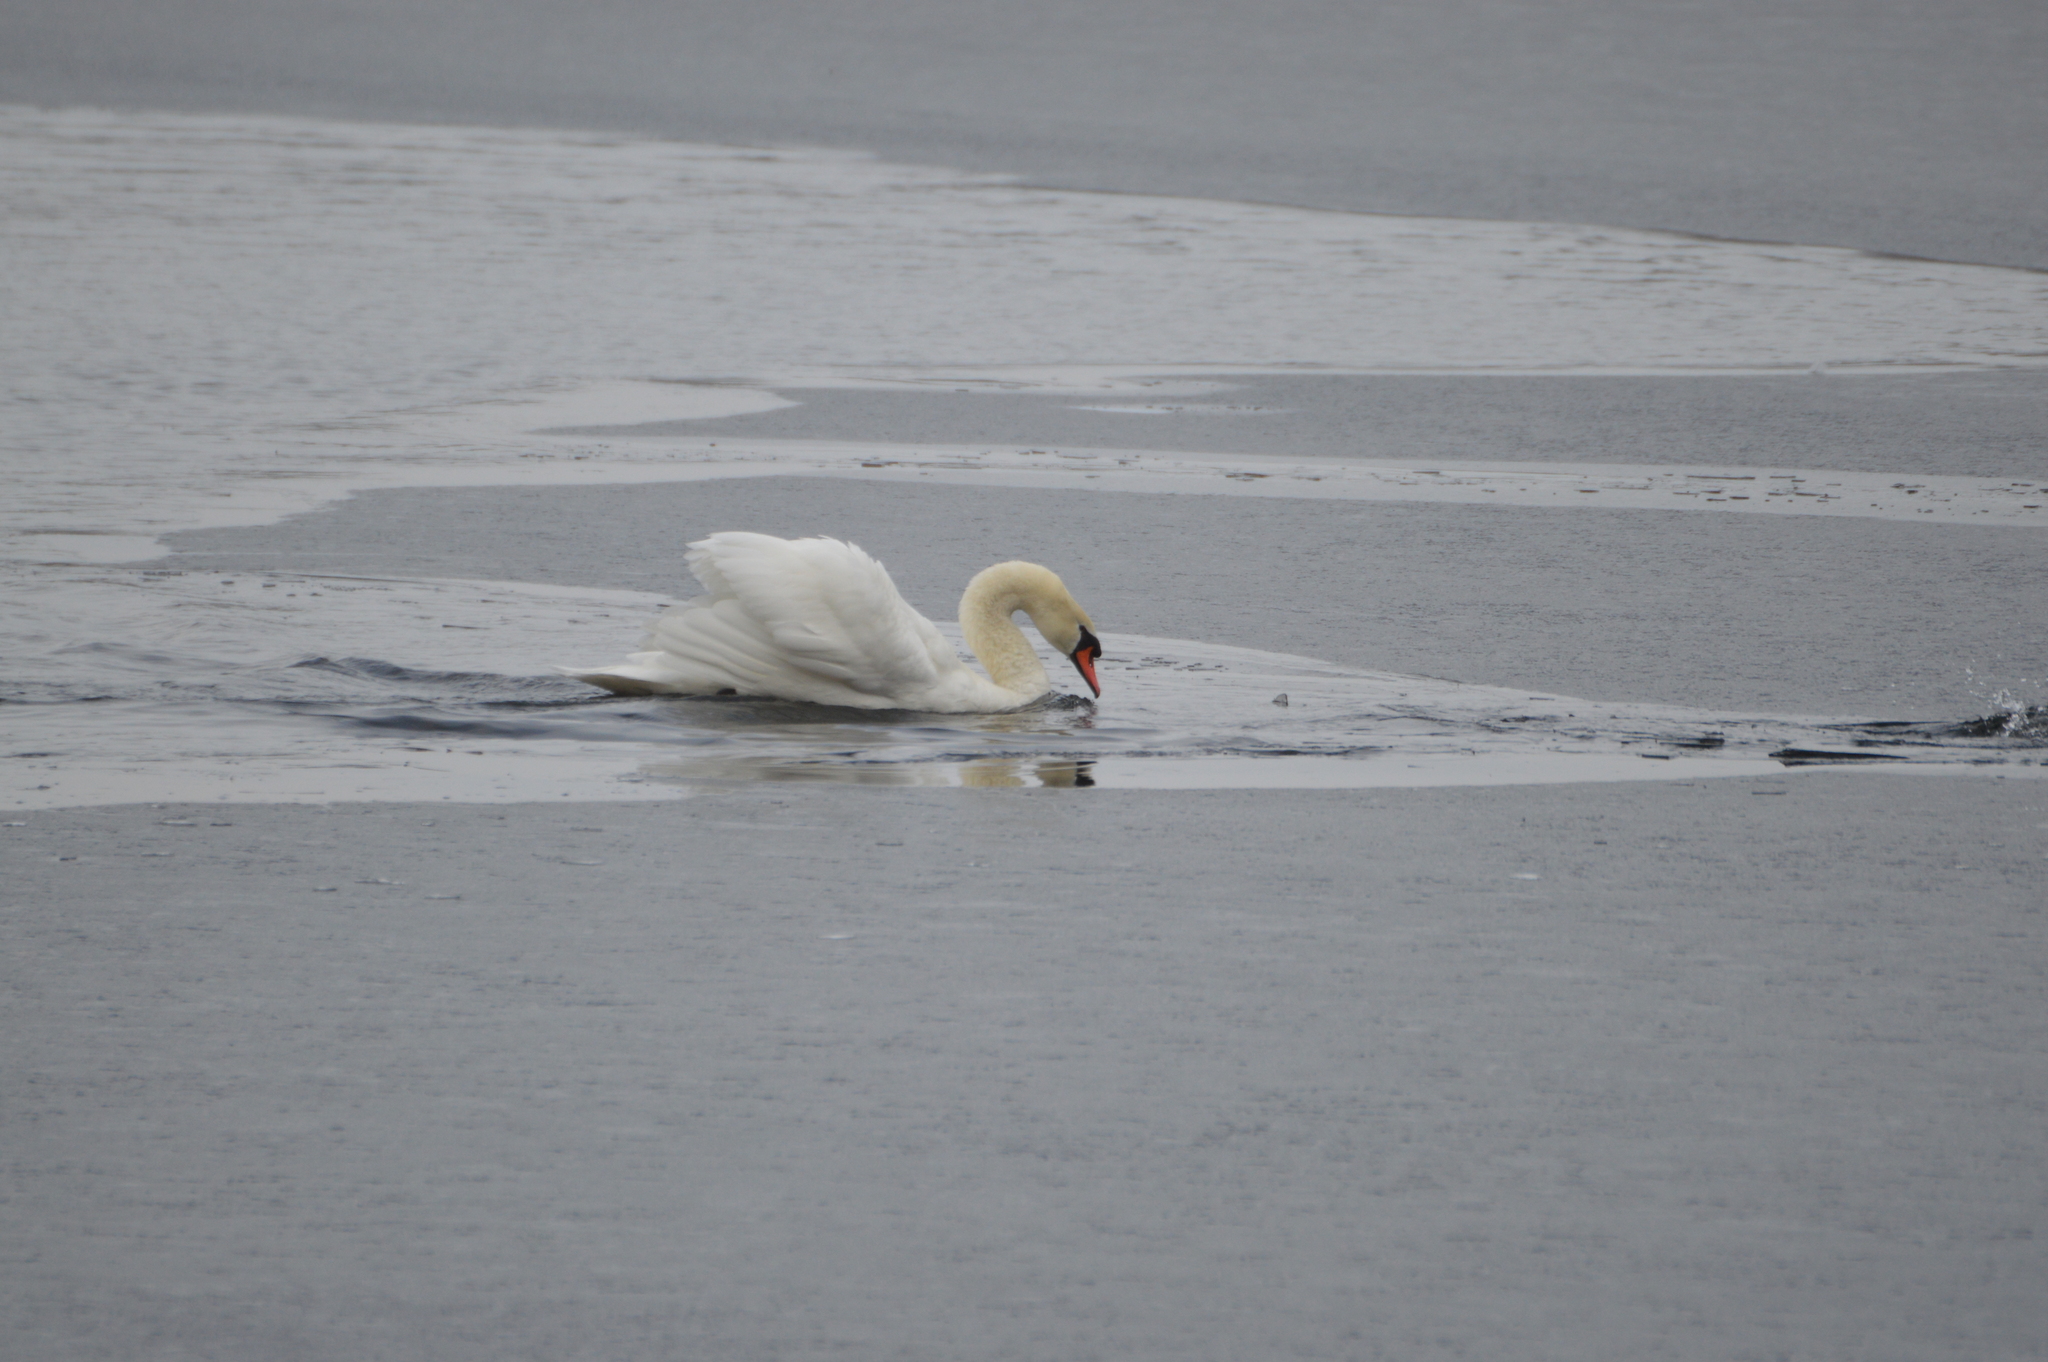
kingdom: Animalia
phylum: Chordata
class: Aves
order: Anseriformes
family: Anatidae
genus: Cygnus
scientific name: Cygnus olor
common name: Mute swan
